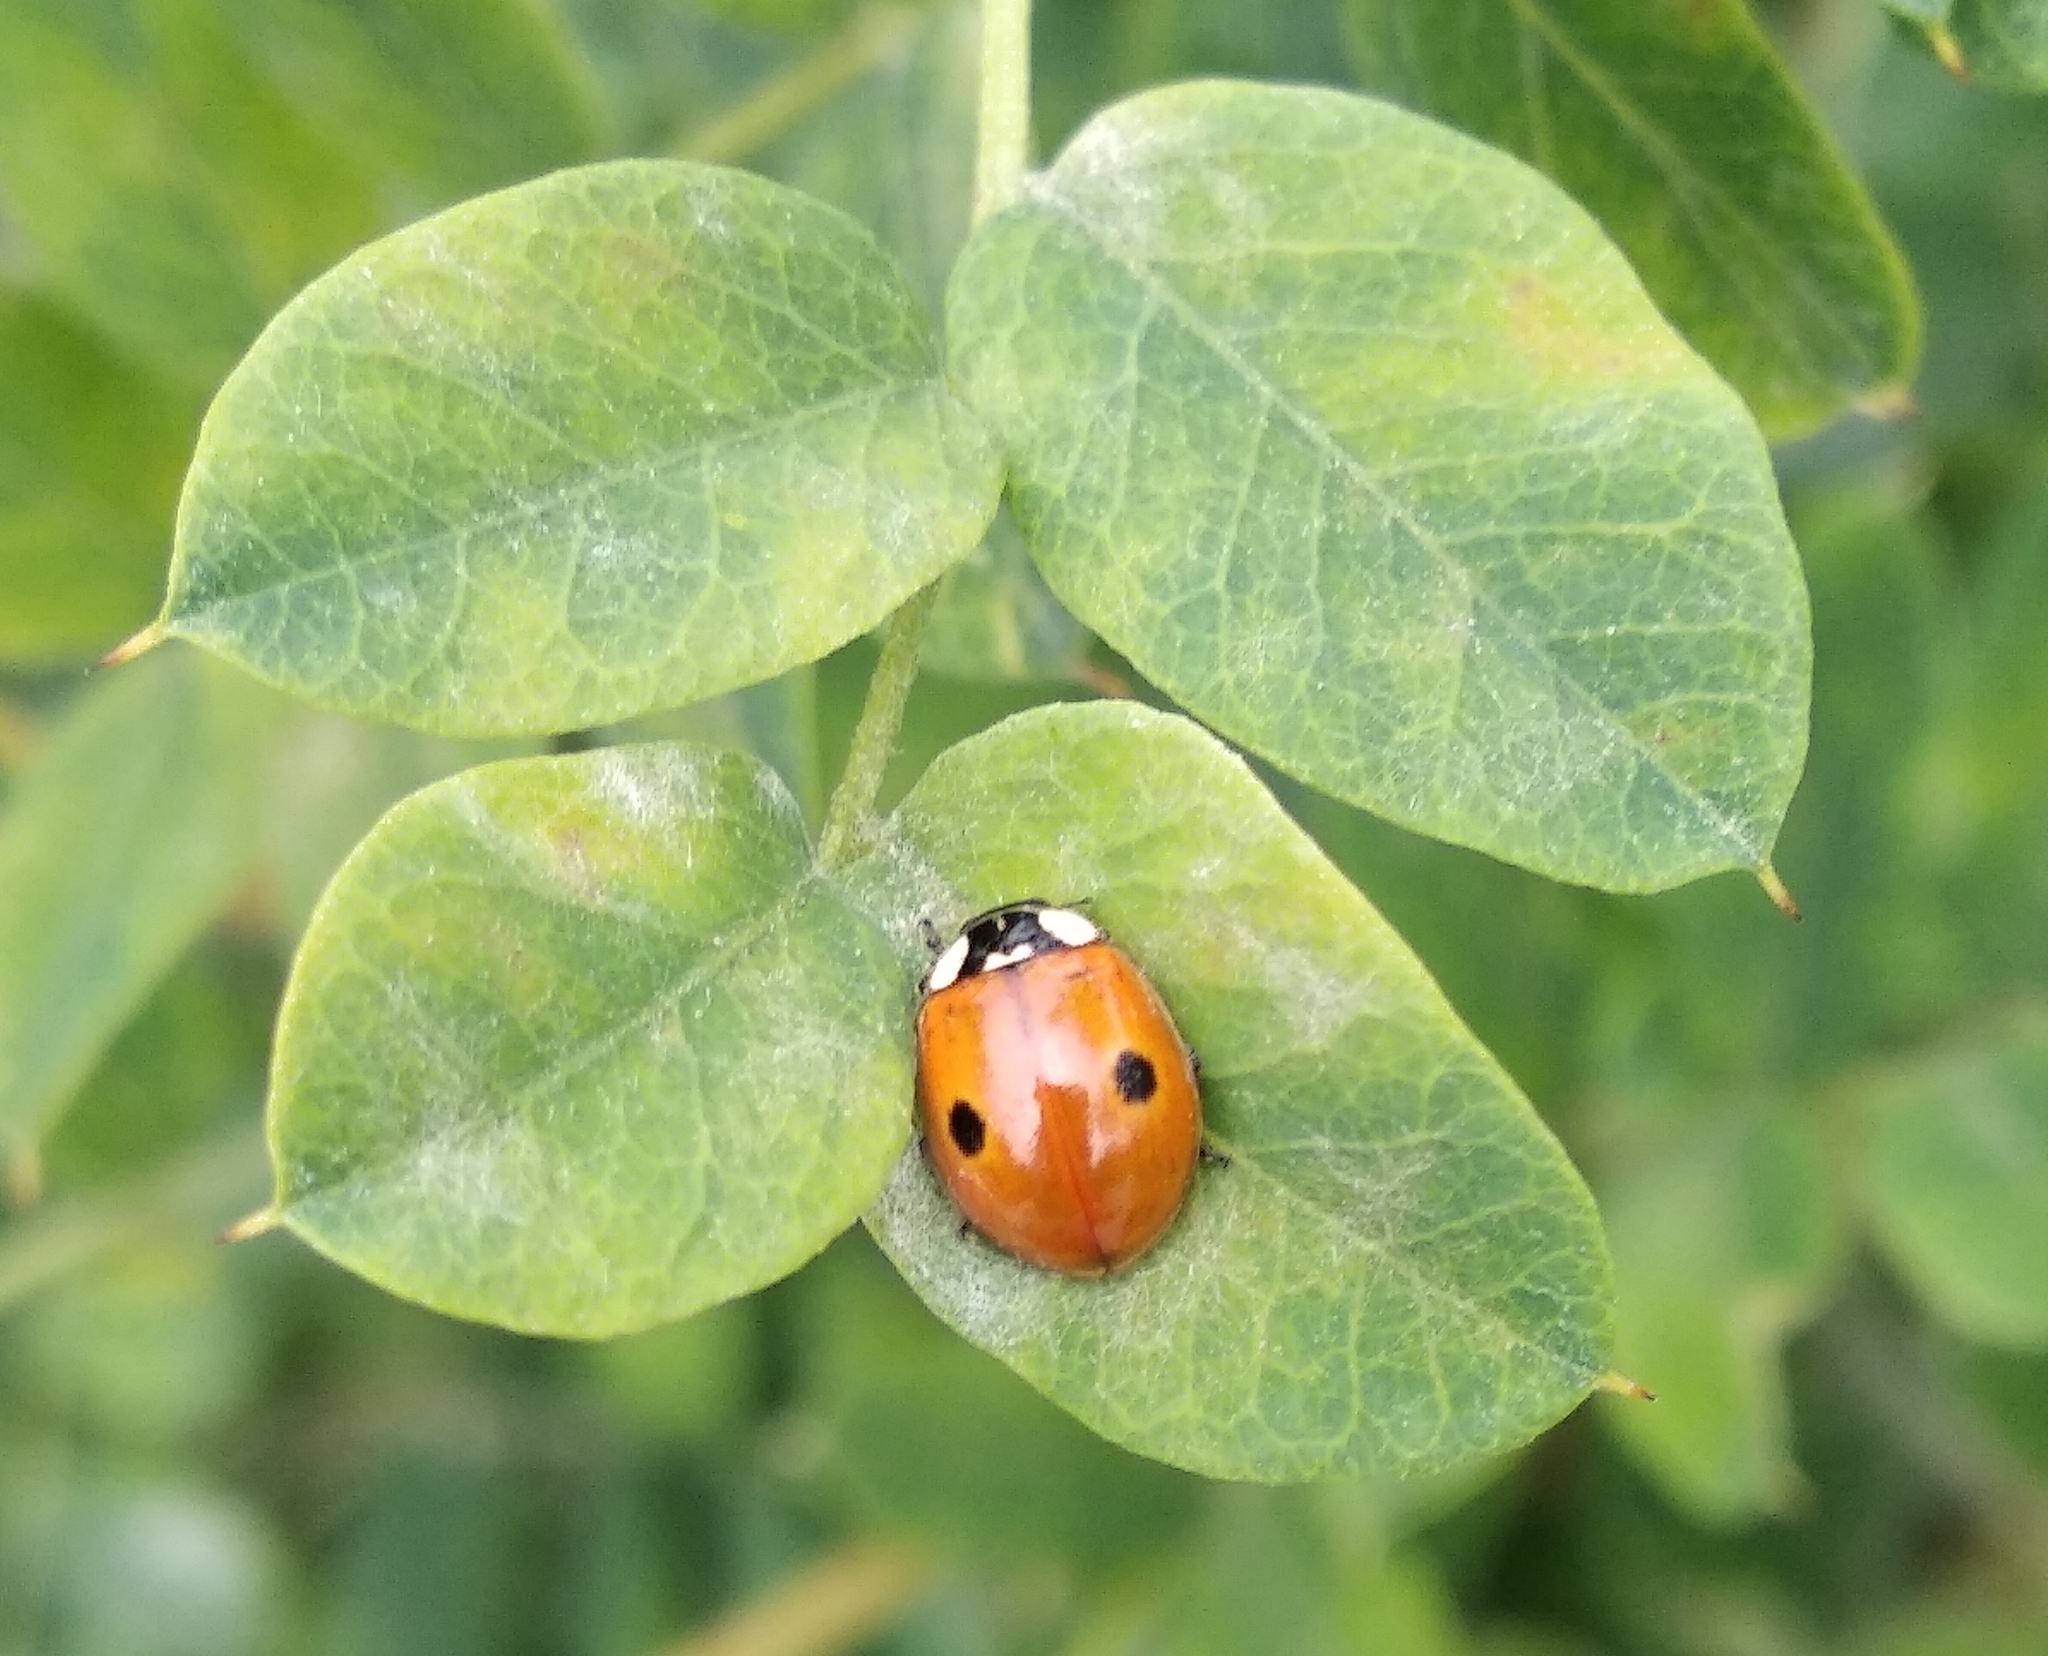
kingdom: Animalia
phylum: Arthropoda
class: Insecta
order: Coleoptera
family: Coccinellidae
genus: Adalia
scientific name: Adalia bipunctata
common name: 2-spot ladybird
